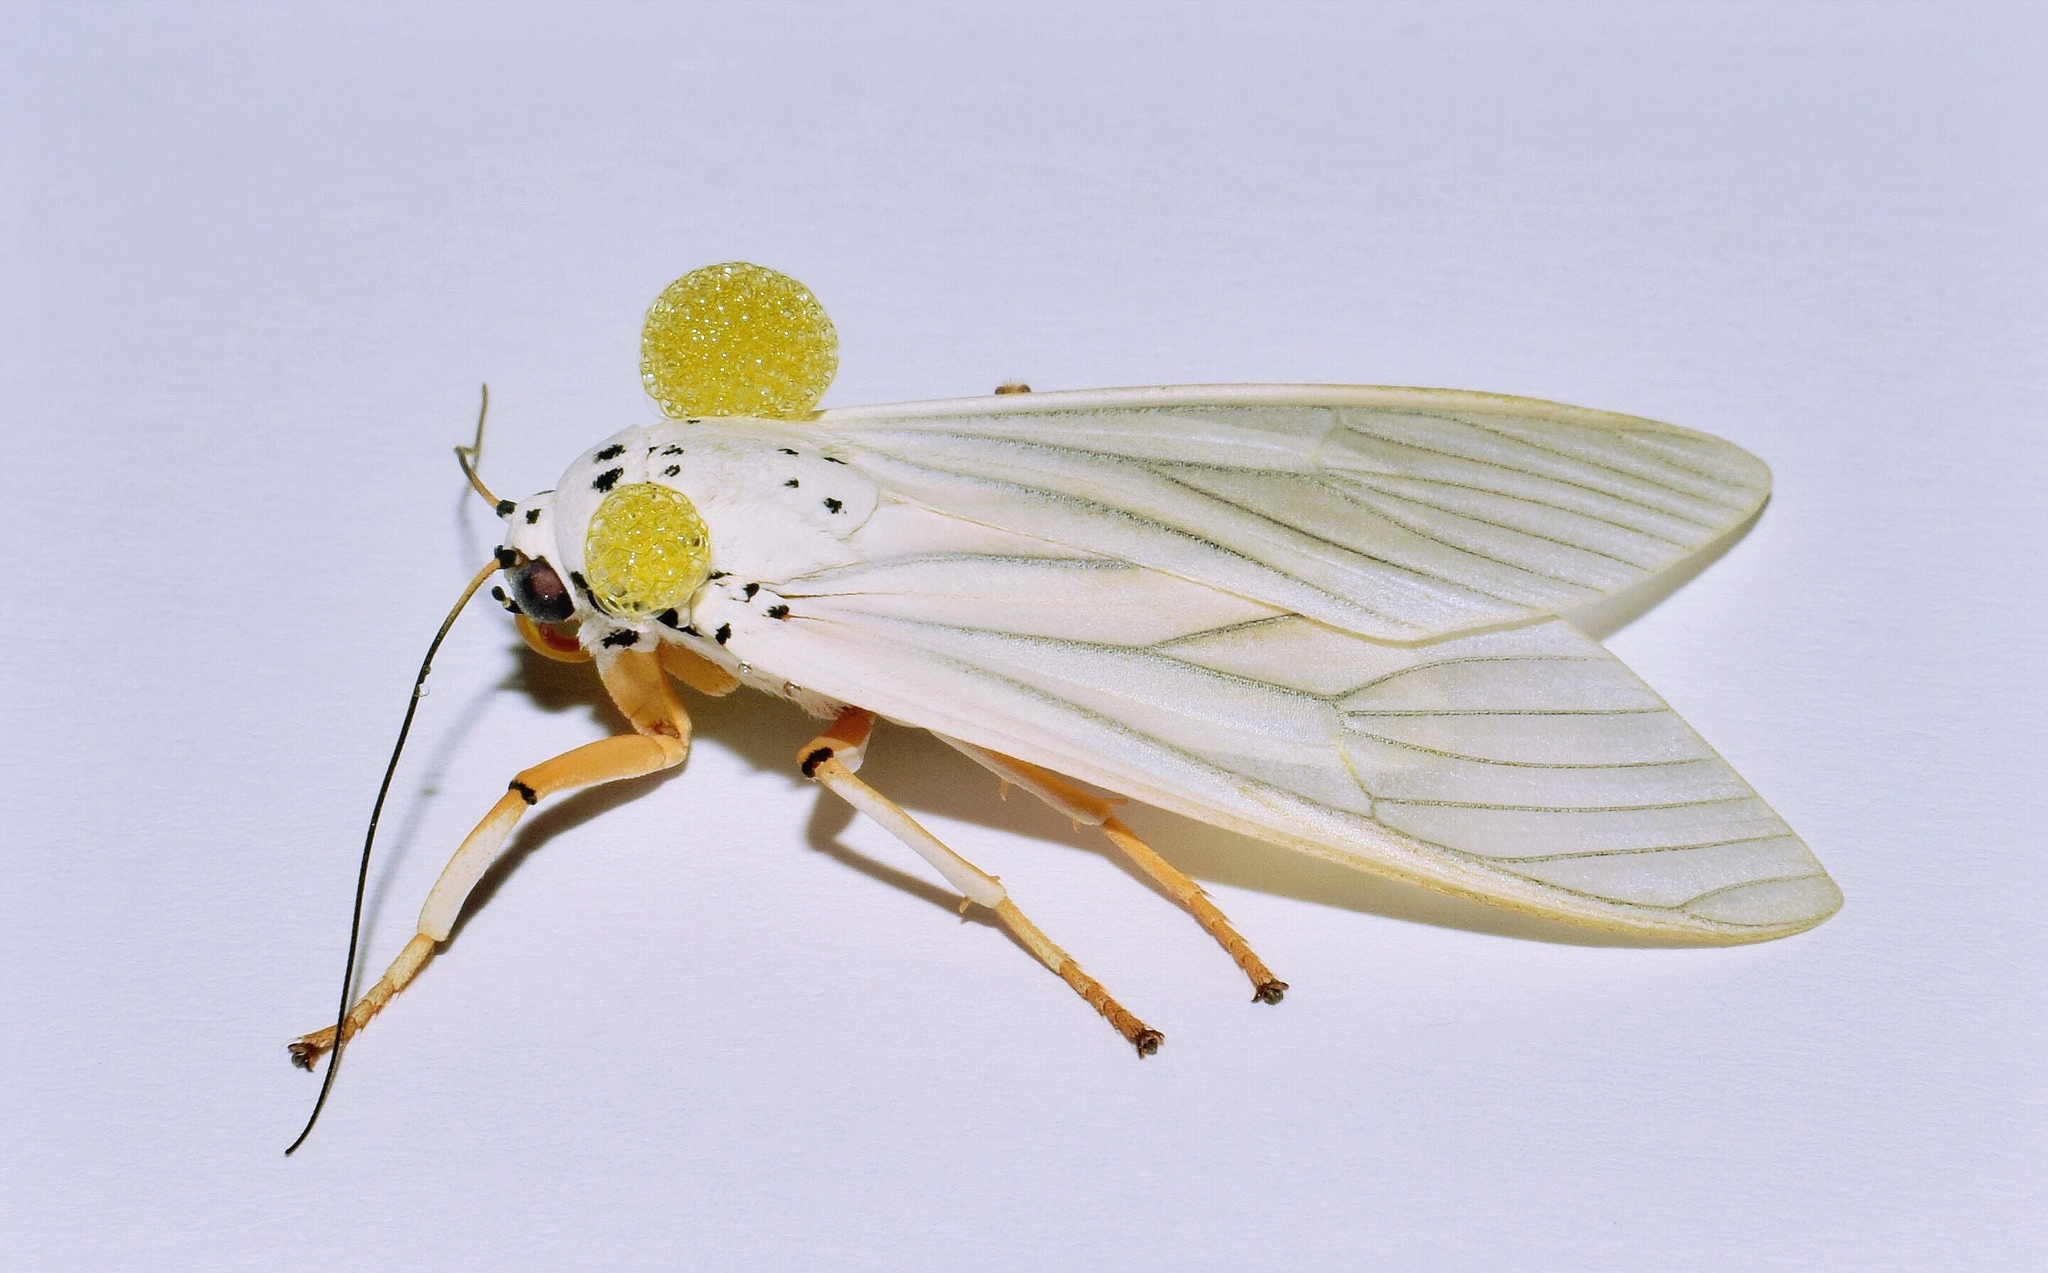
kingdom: Animalia
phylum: Arthropoda
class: Insecta
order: Lepidoptera
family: Erebidae
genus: Amerila
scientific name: Amerila bubo
